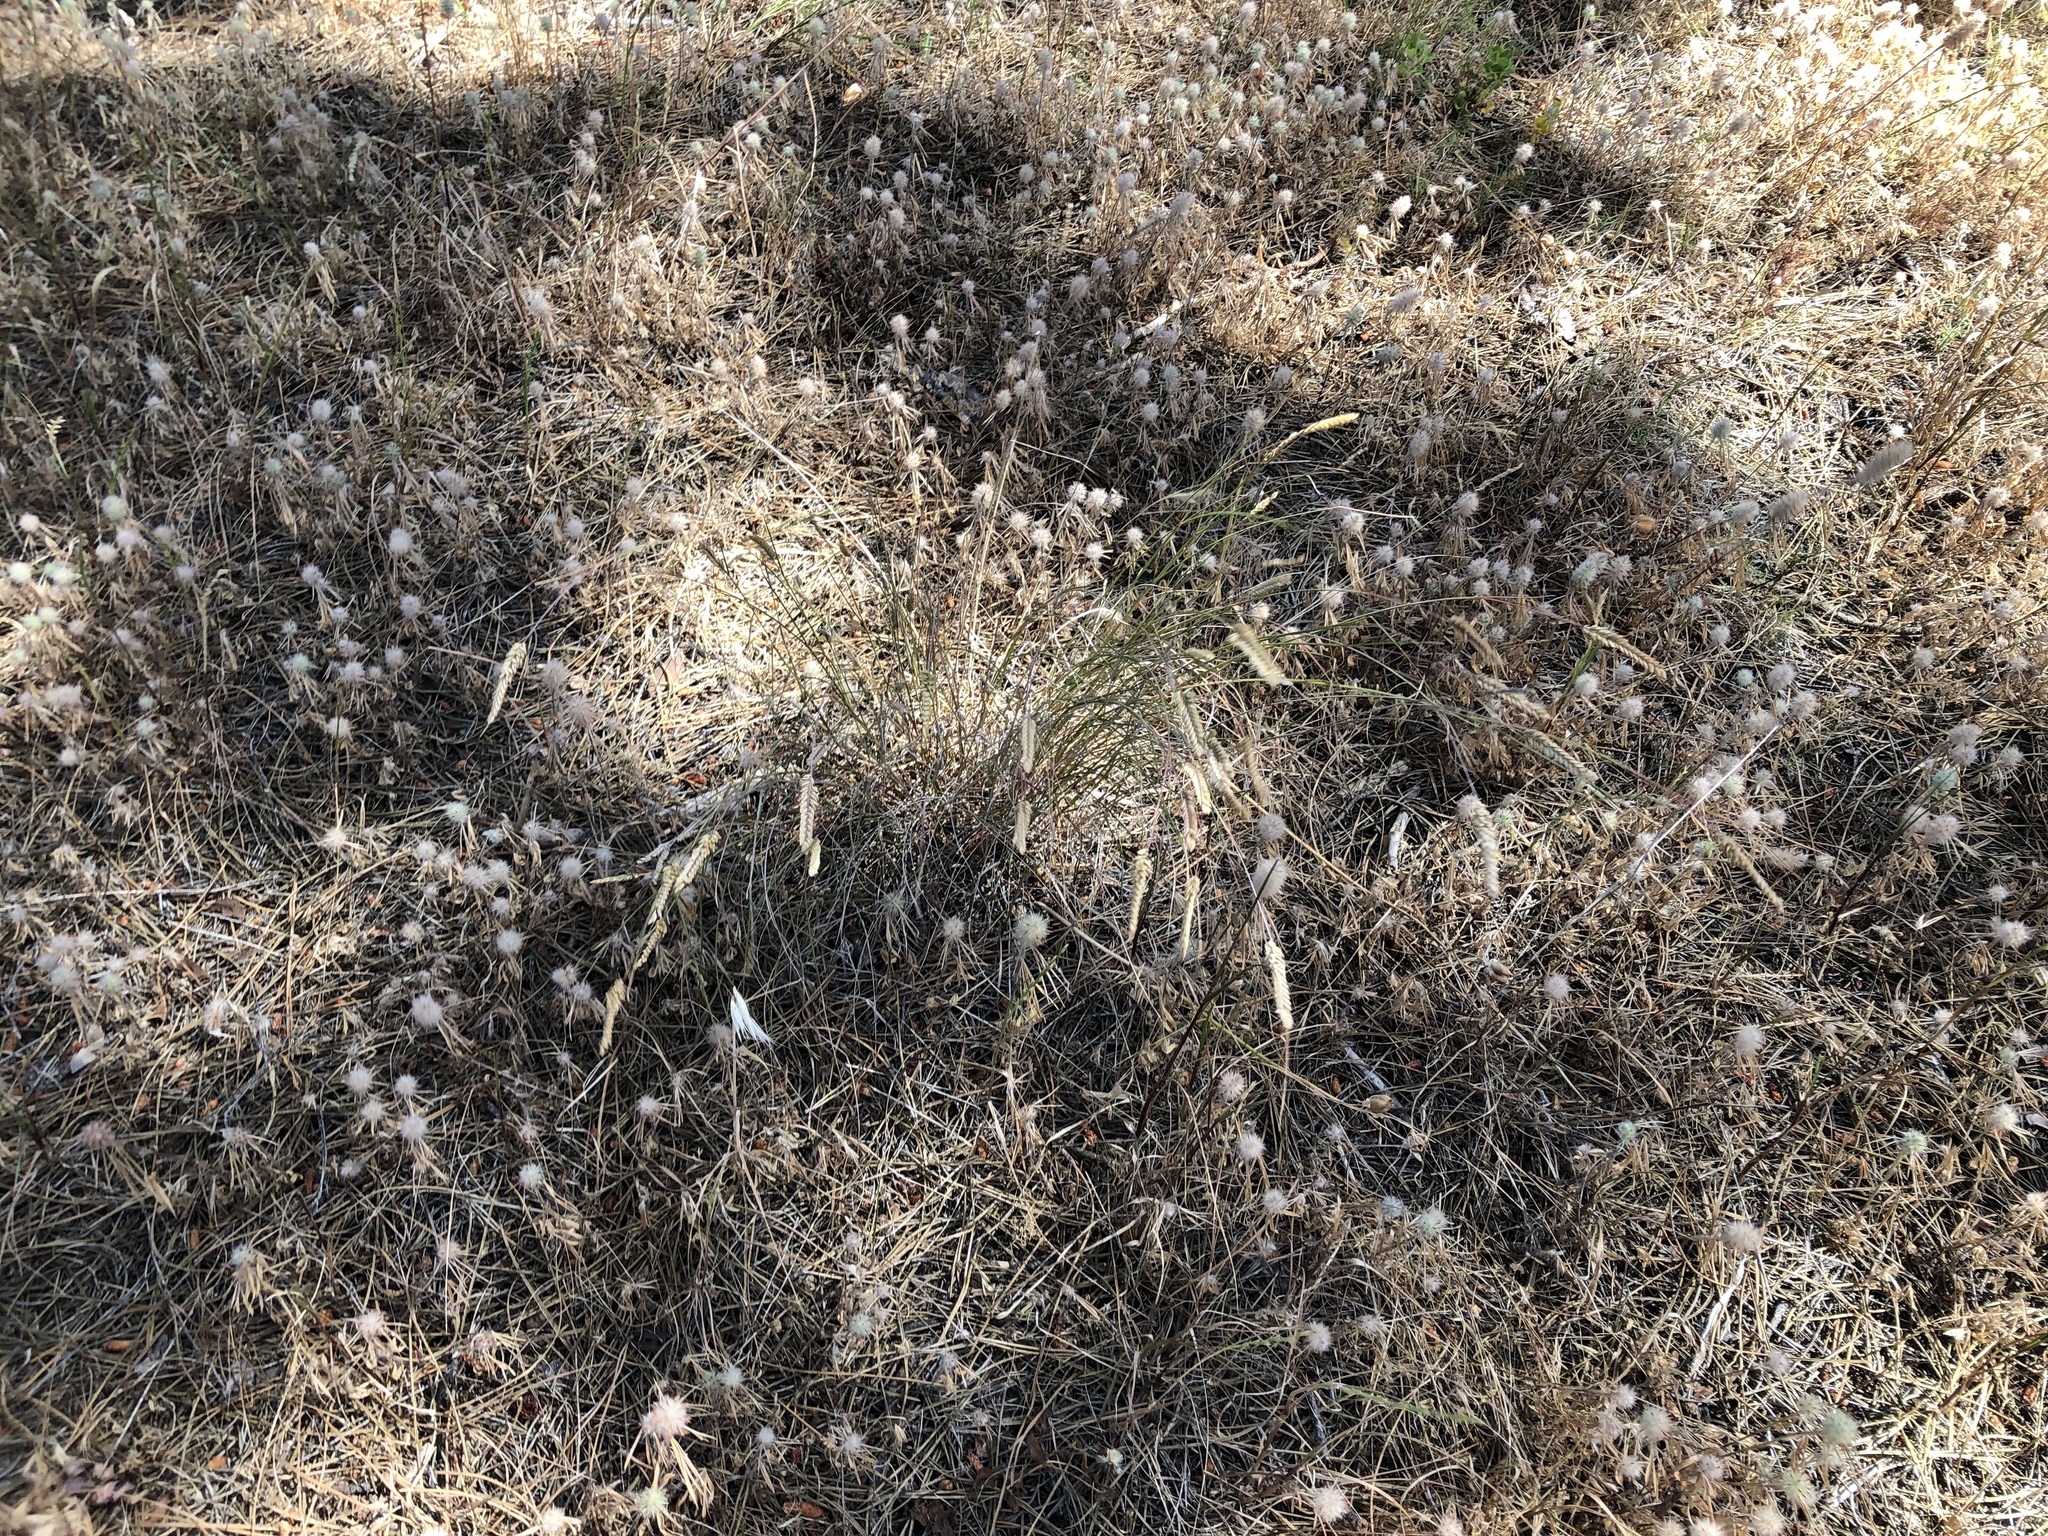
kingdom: Plantae
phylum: Tracheophyta
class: Liliopsida
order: Poales
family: Poaceae
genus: Lagurus
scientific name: Lagurus ovatus
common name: Hare's-tail
